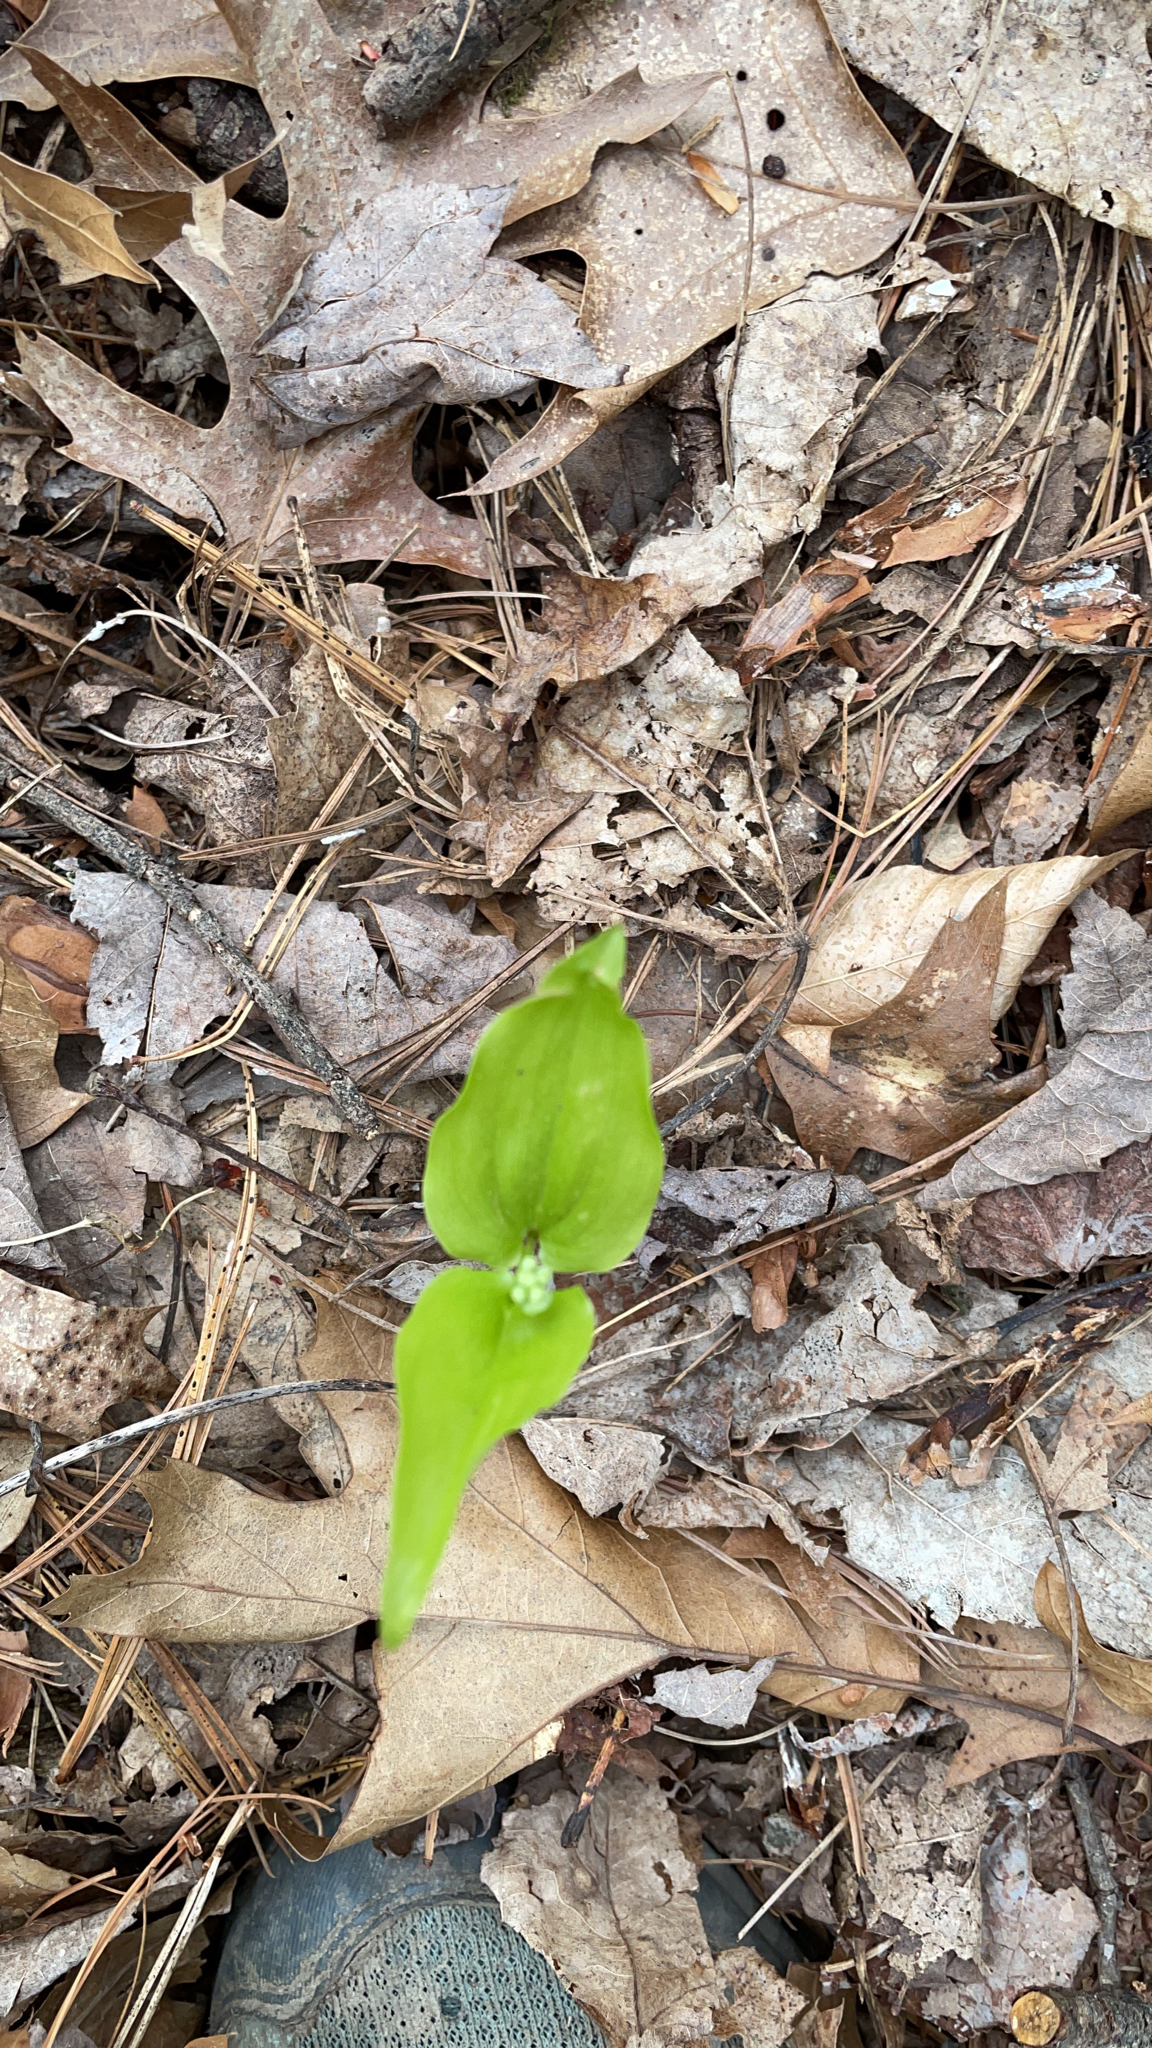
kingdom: Plantae
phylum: Tracheophyta
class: Liliopsida
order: Asparagales
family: Asparagaceae
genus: Maianthemum
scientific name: Maianthemum canadense
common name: False lily-of-the-valley
